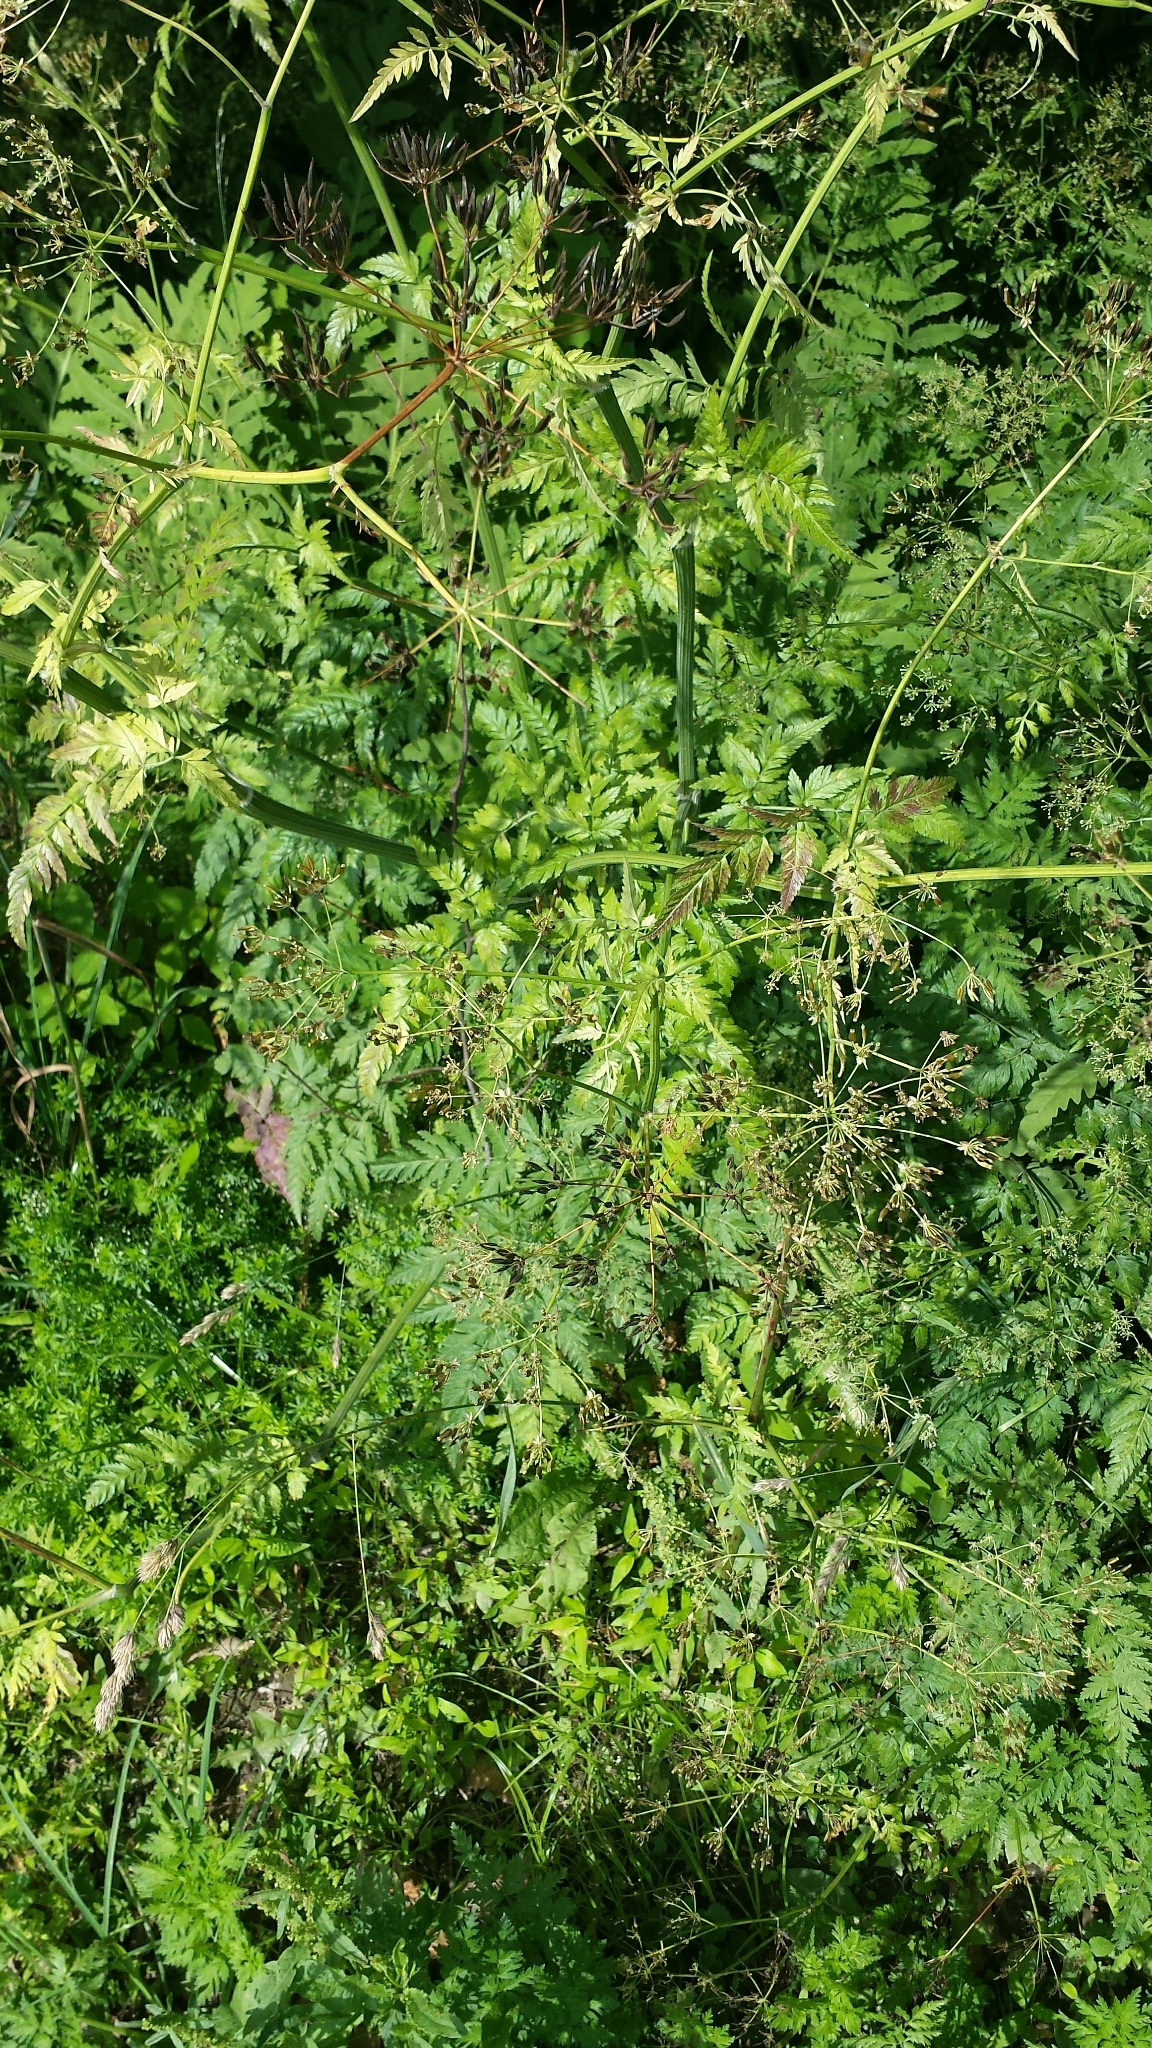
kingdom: Plantae
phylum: Tracheophyta
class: Magnoliopsida
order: Apiales
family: Apiaceae
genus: Anthriscus
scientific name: Anthriscus sylvestris
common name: Cow parsley
